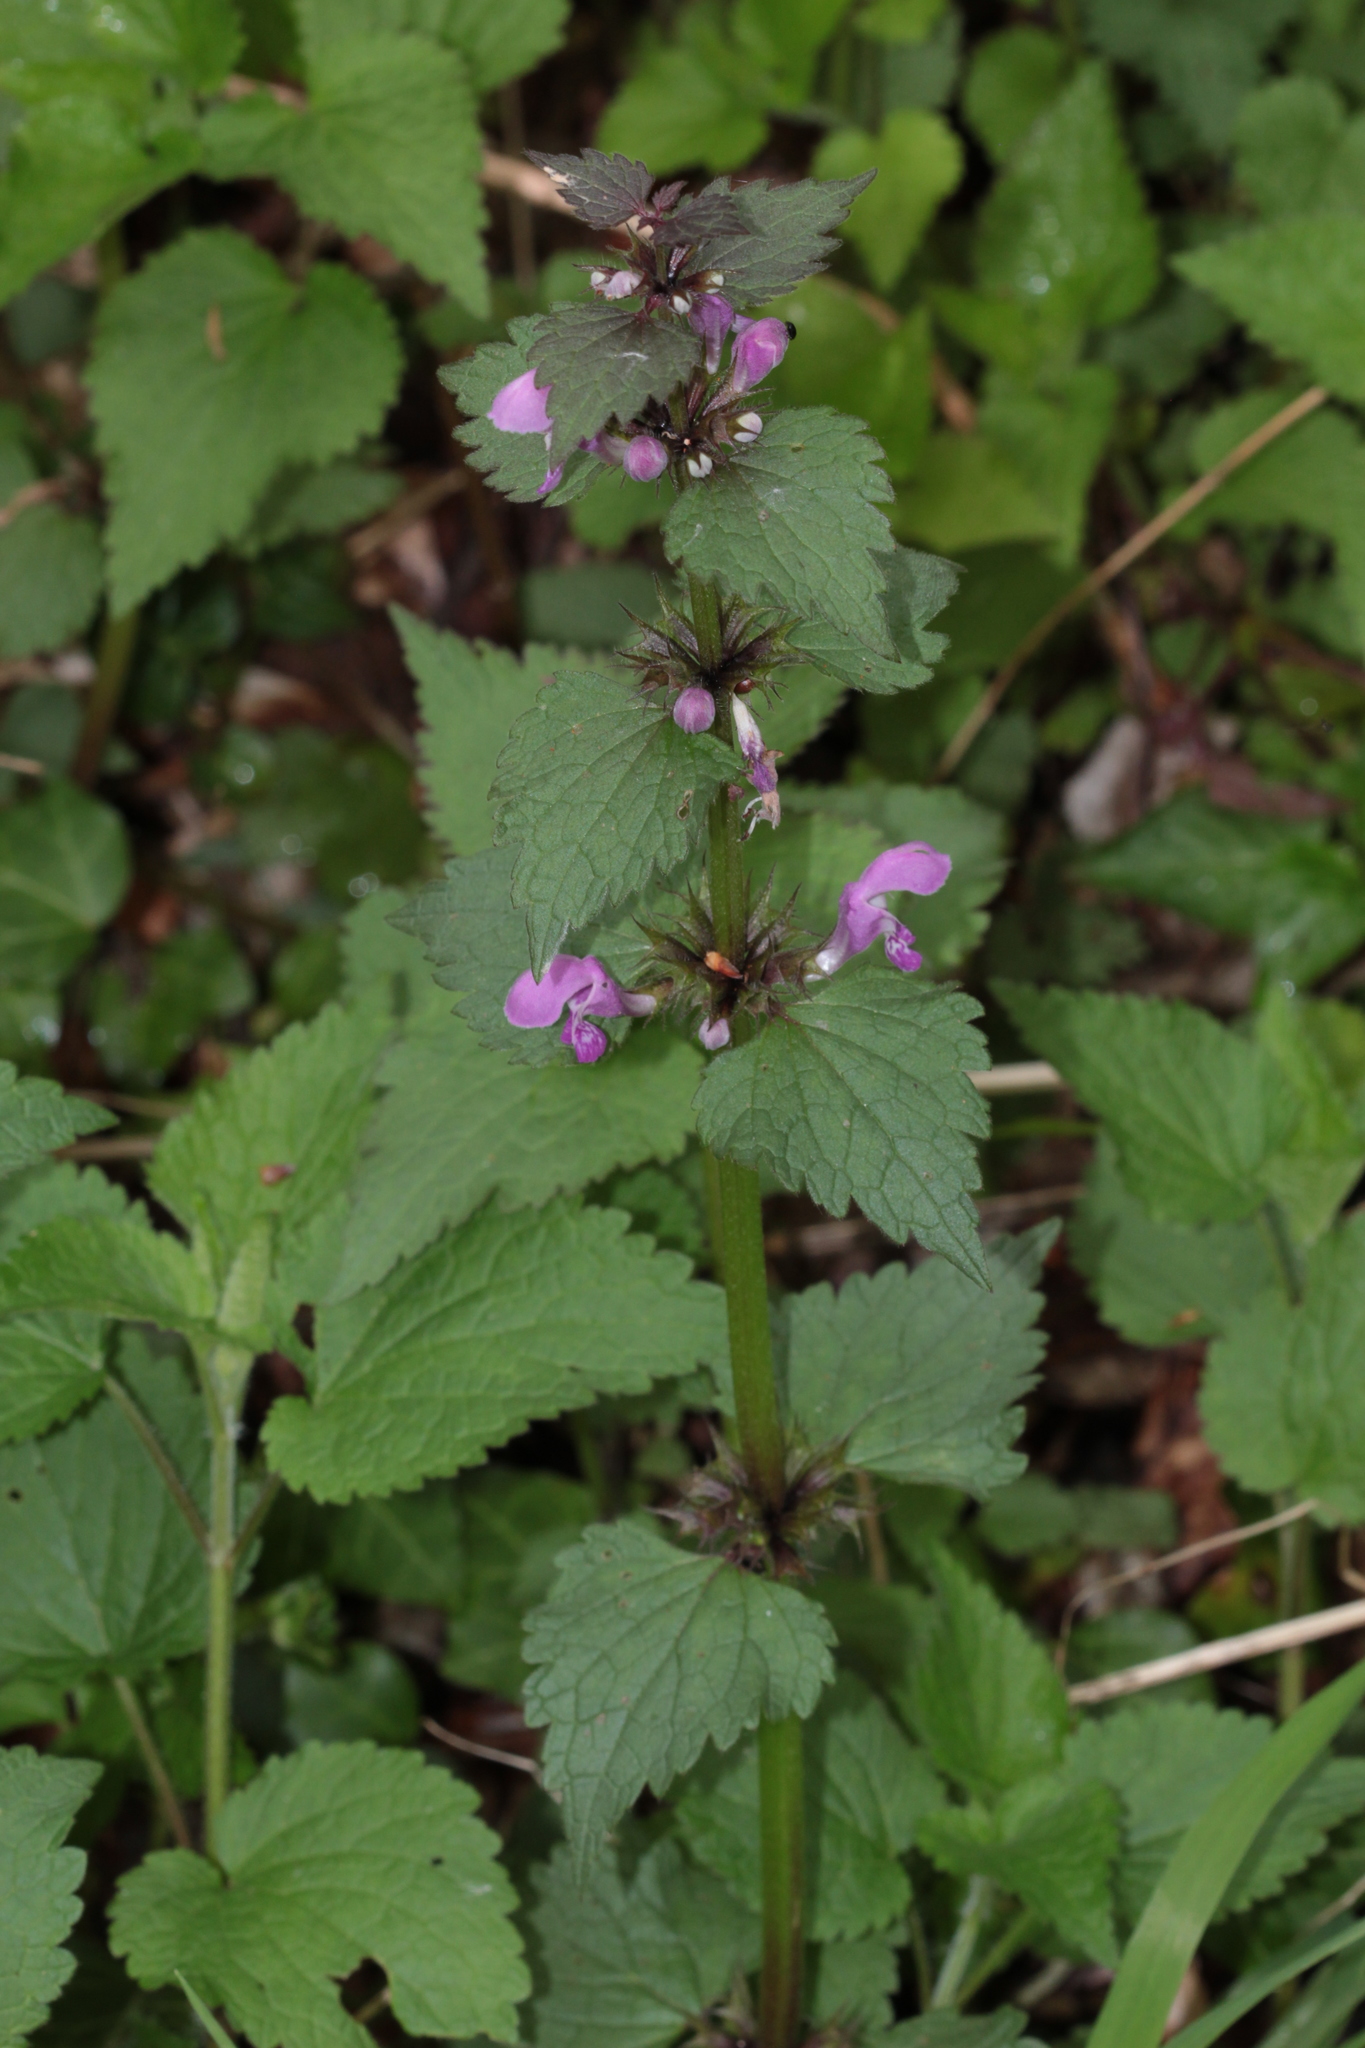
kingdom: Plantae
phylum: Tracheophyta
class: Magnoliopsida
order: Lamiales
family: Lamiaceae
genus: Lamium
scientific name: Lamium maculatum
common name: Spotted dead-nettle
